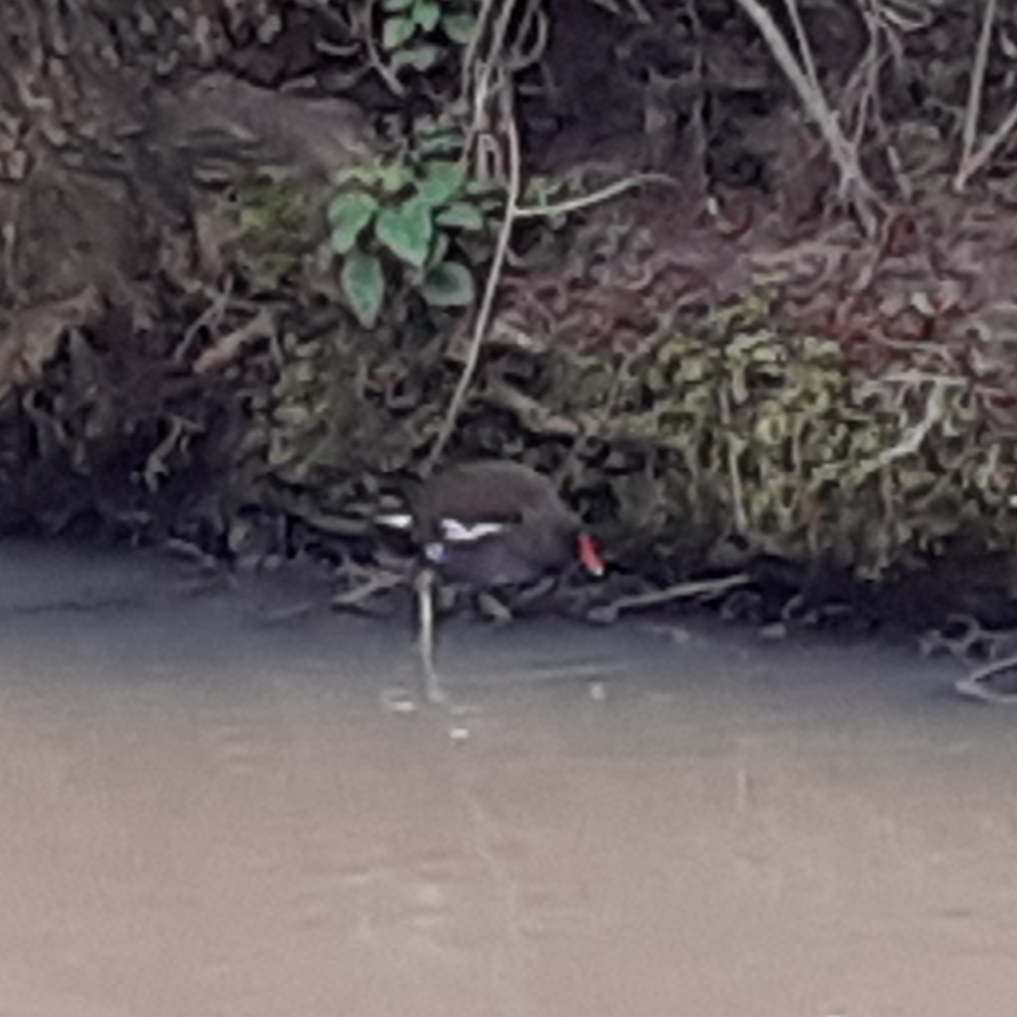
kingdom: Animalia
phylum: Chordata
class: Aves
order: Gruiformes
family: Rallidae
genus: Gallinula
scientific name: Gallinula chloropus
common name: Common moorhen
